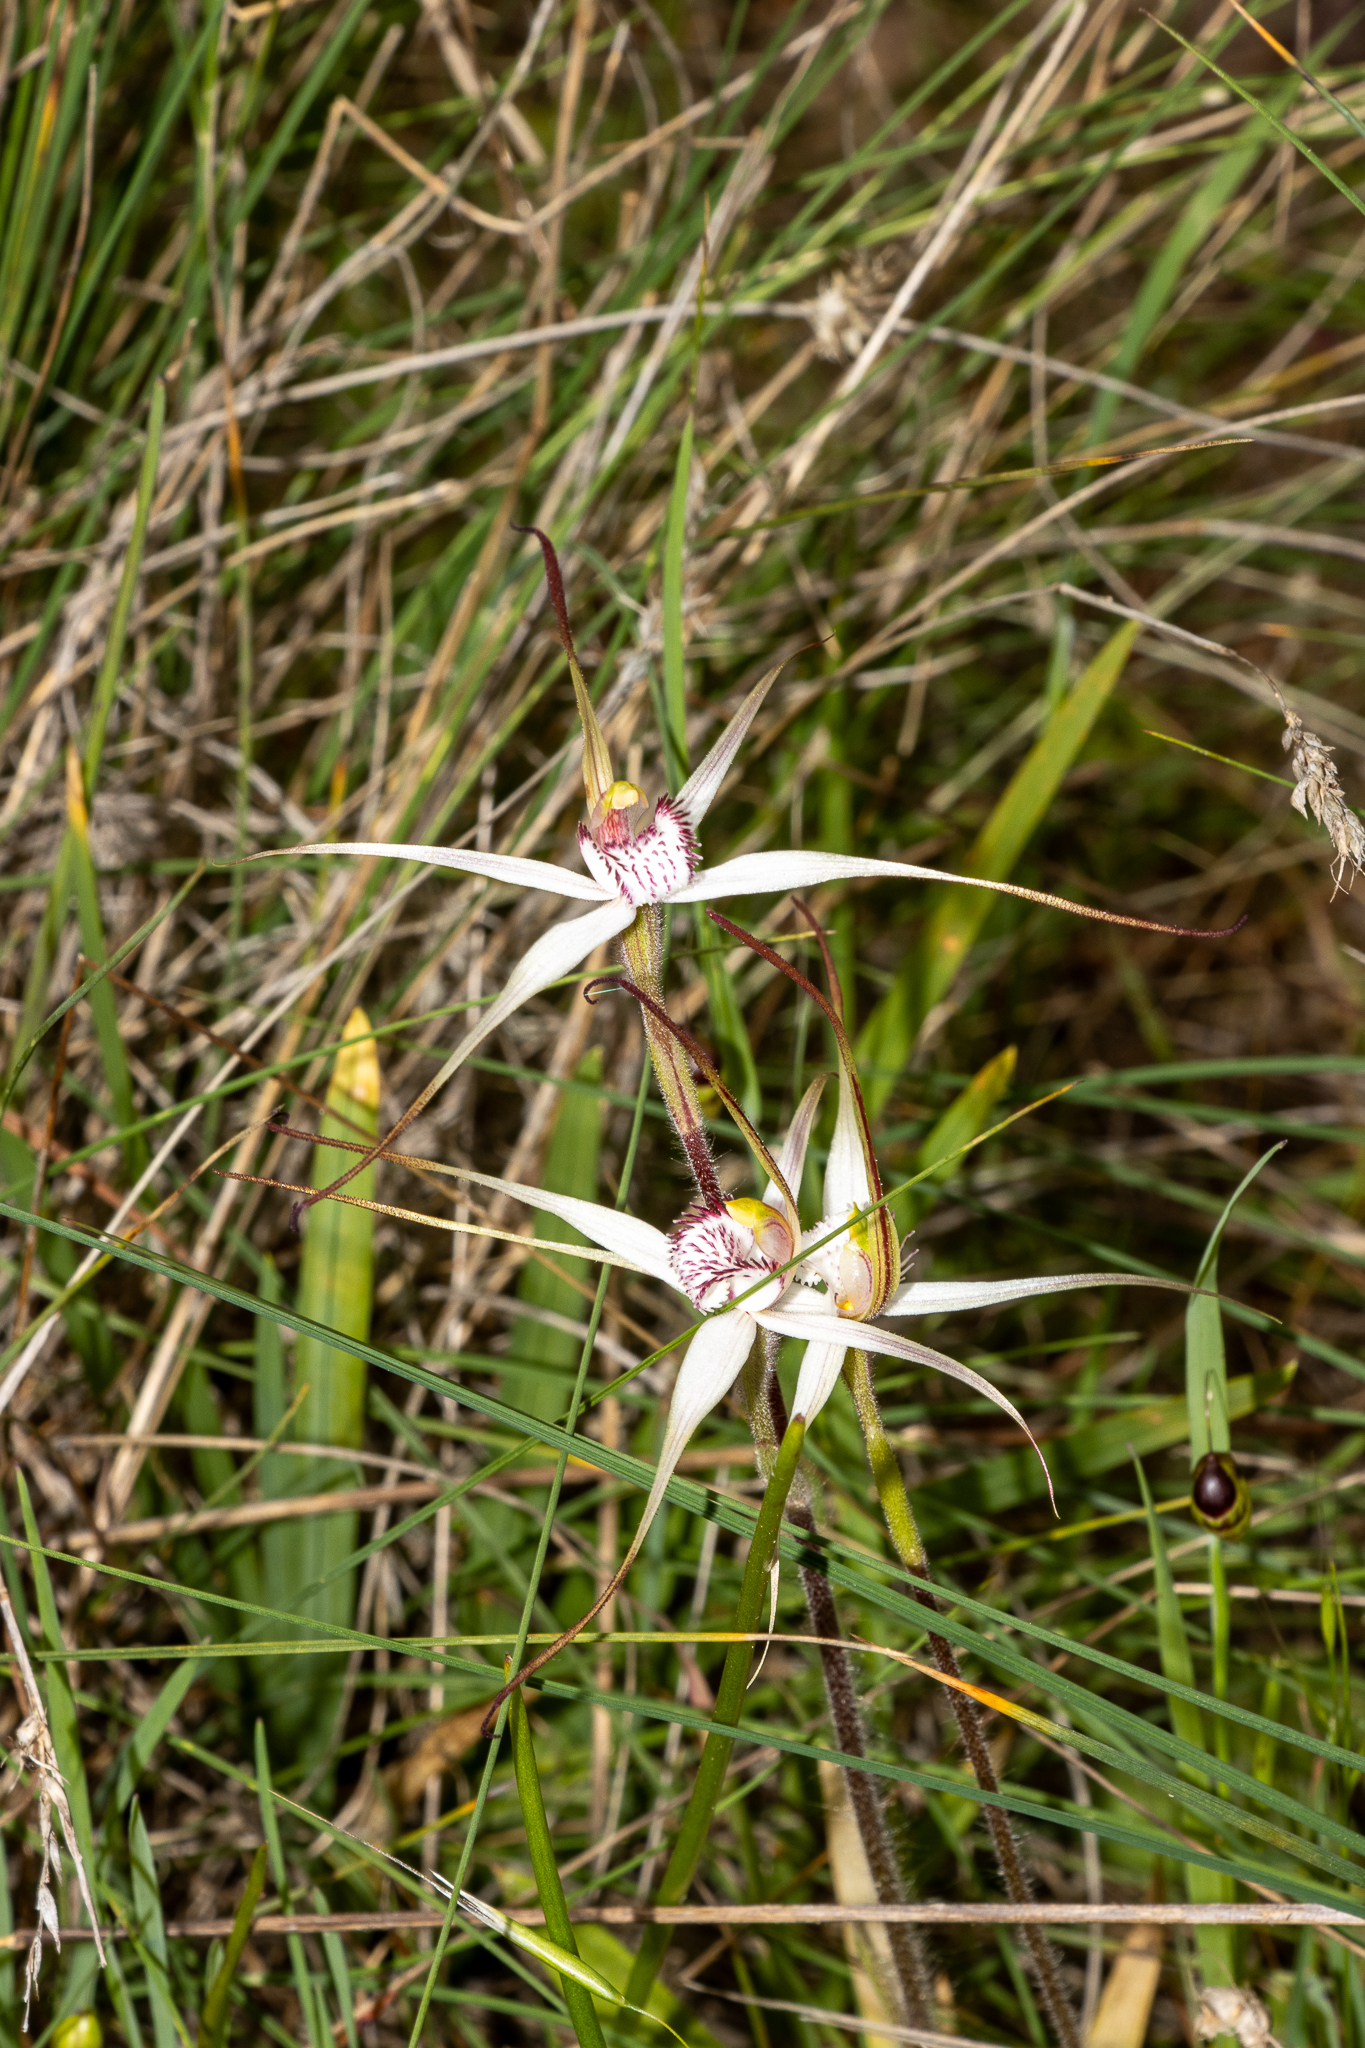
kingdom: Plantae
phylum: Tracheophyta
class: Liliopsida
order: Asparagales
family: Orchidaceae
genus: Caladenia
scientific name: Caladenia intuta
